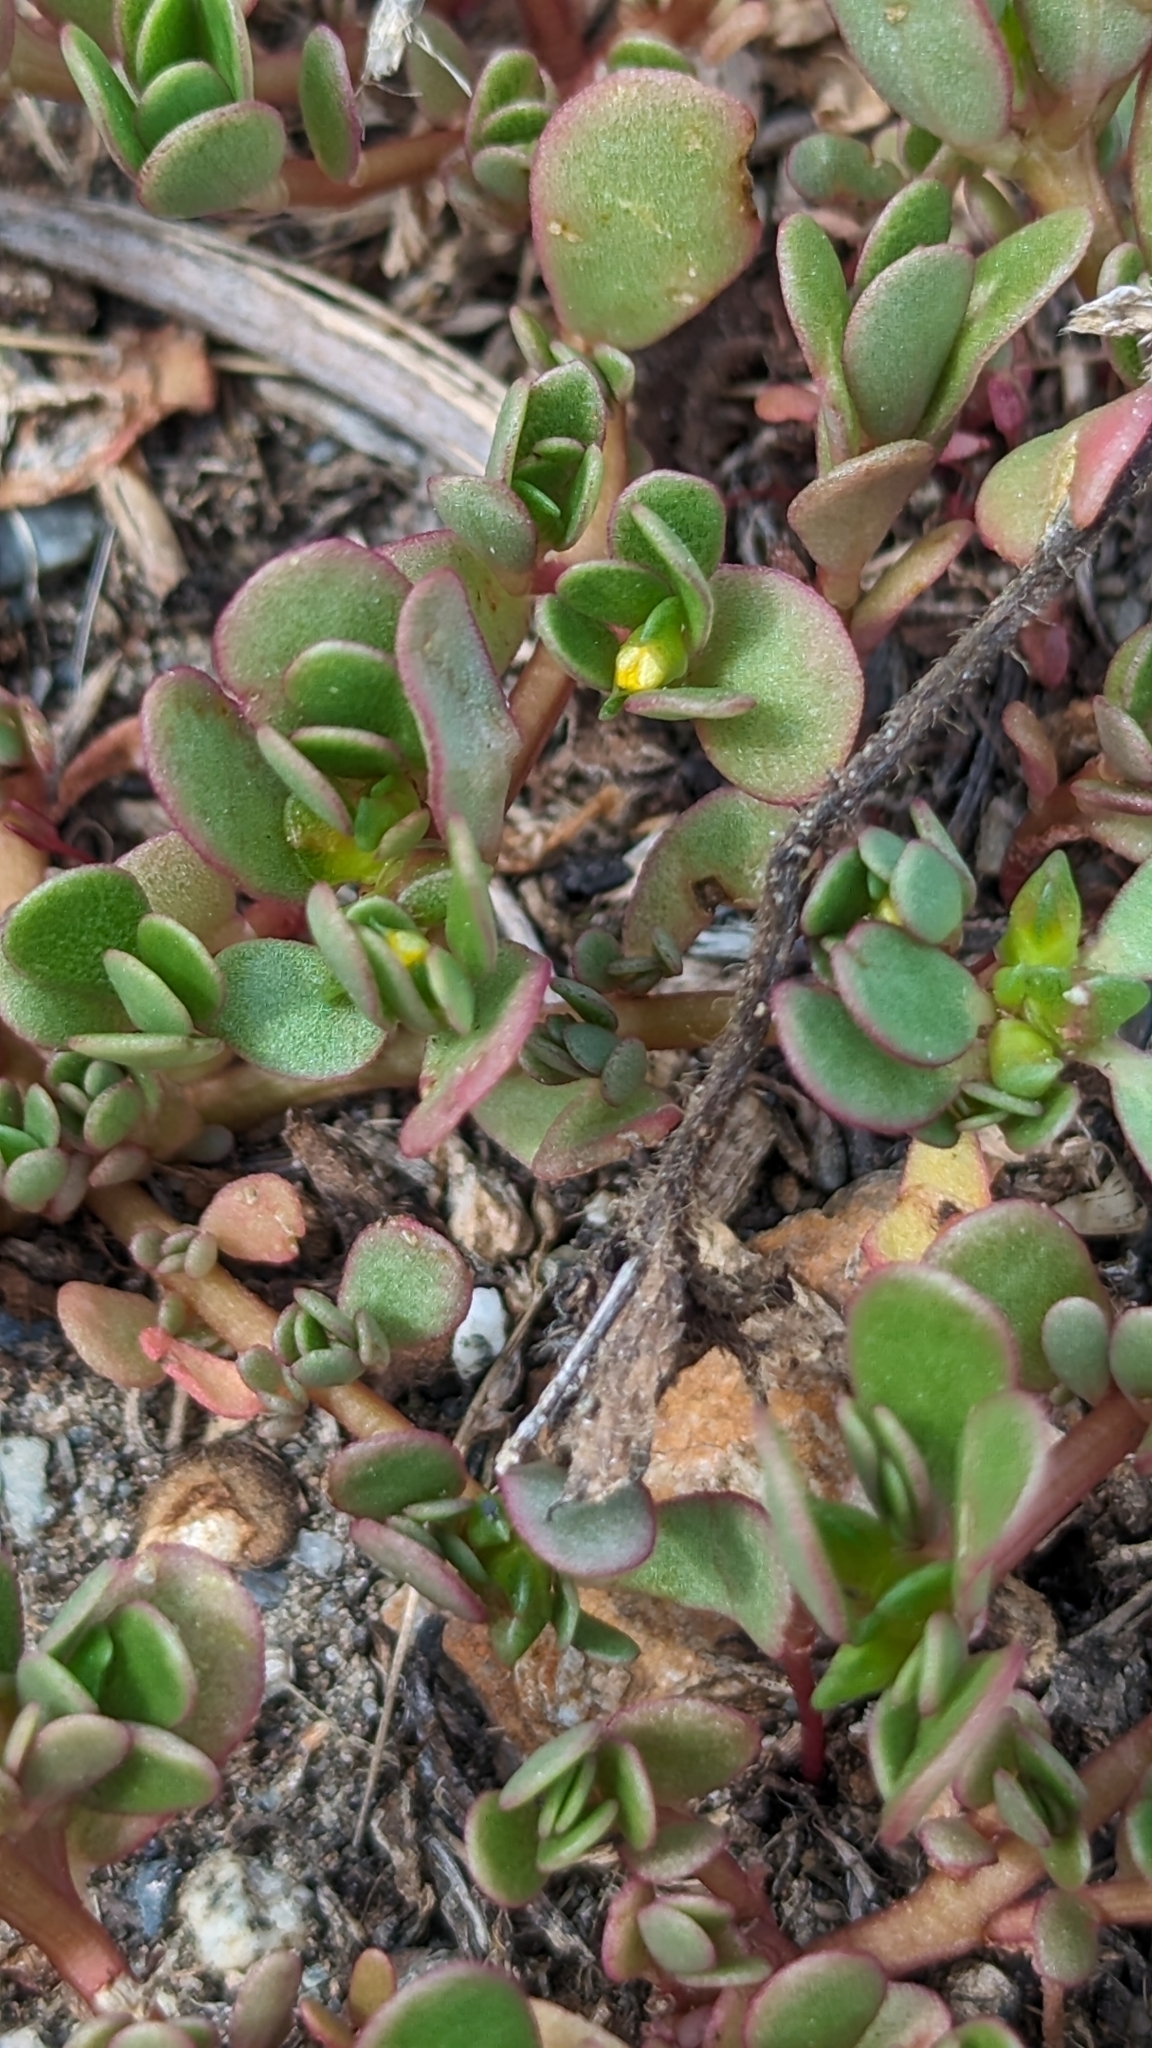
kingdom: Plantae
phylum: Tracheophyta
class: Magnoliopsida
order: Caryophyllales
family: Portulacaceae
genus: Portulaca
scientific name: Portulaca oleracea
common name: Common purslane
